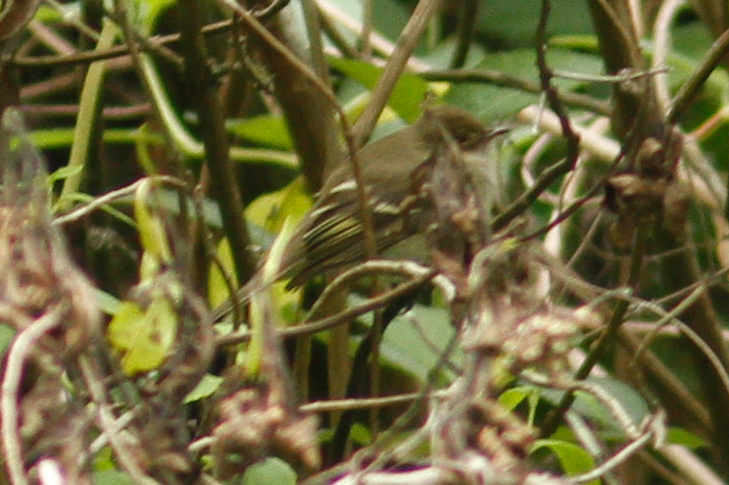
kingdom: Animalia
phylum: Chordata
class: Aves
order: Passeriformes
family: Tyrannidae
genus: Elaenia
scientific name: Elaenia pallatangae
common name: Sierran elaenia
